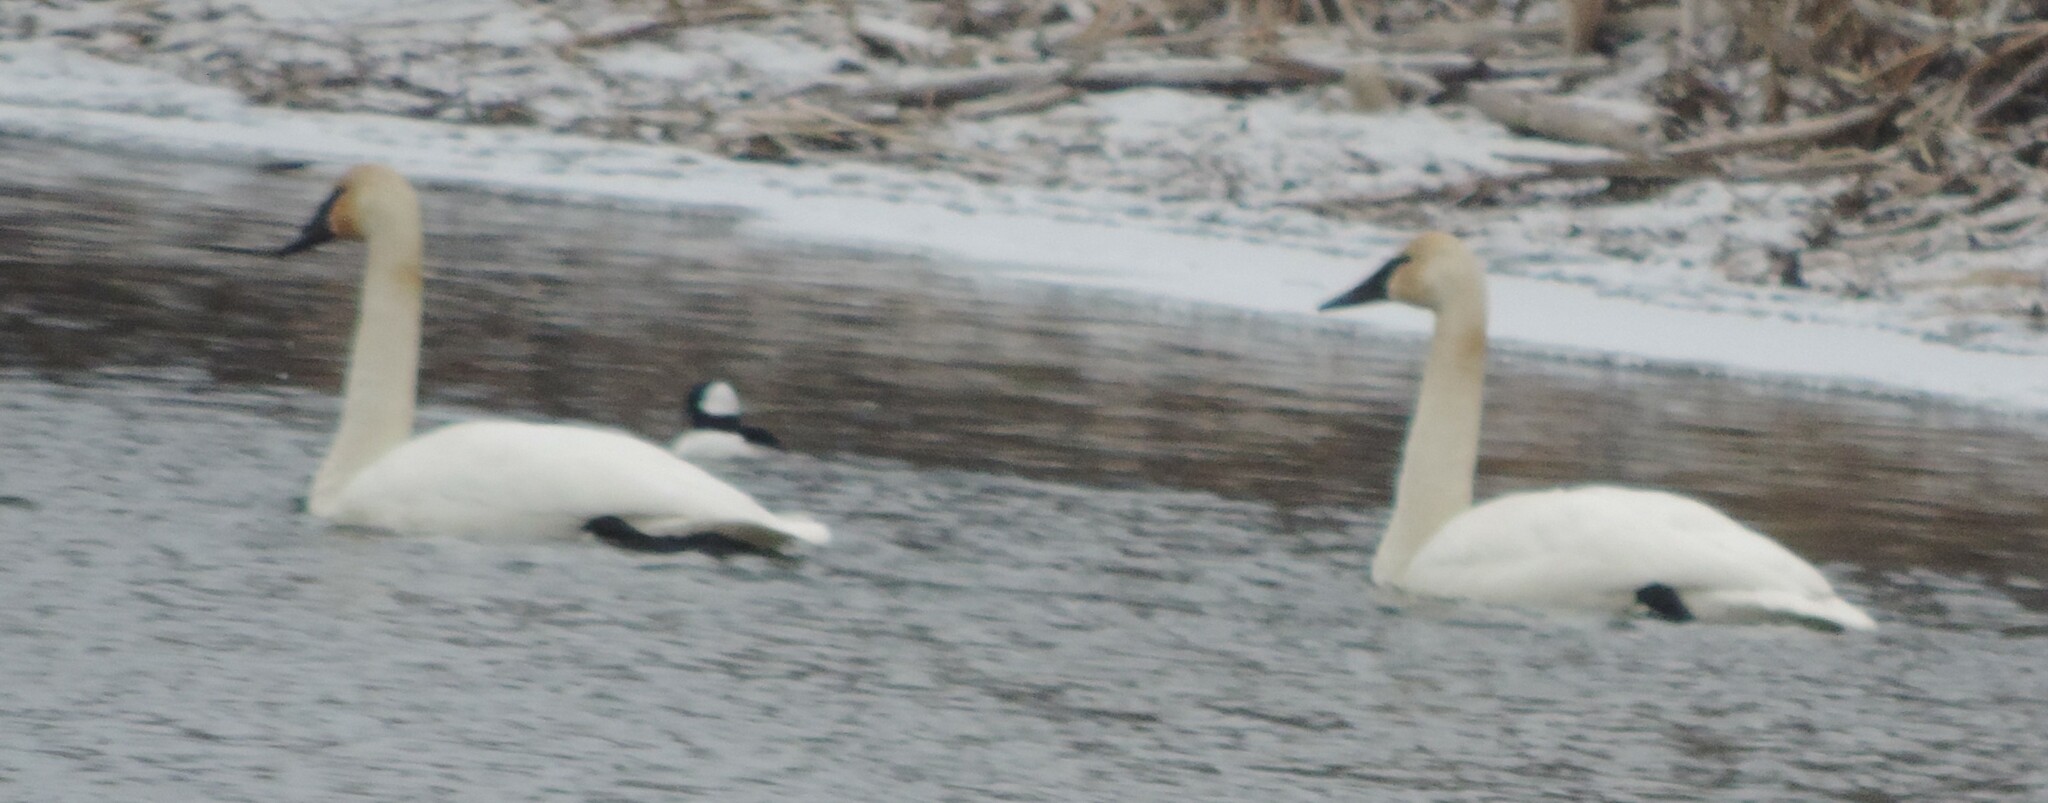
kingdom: Animalia
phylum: Chordata
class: Aves
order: Anseriformes
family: Anatidae
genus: Cygnus
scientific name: Cygnus buccinator
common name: Trumpeter swan
